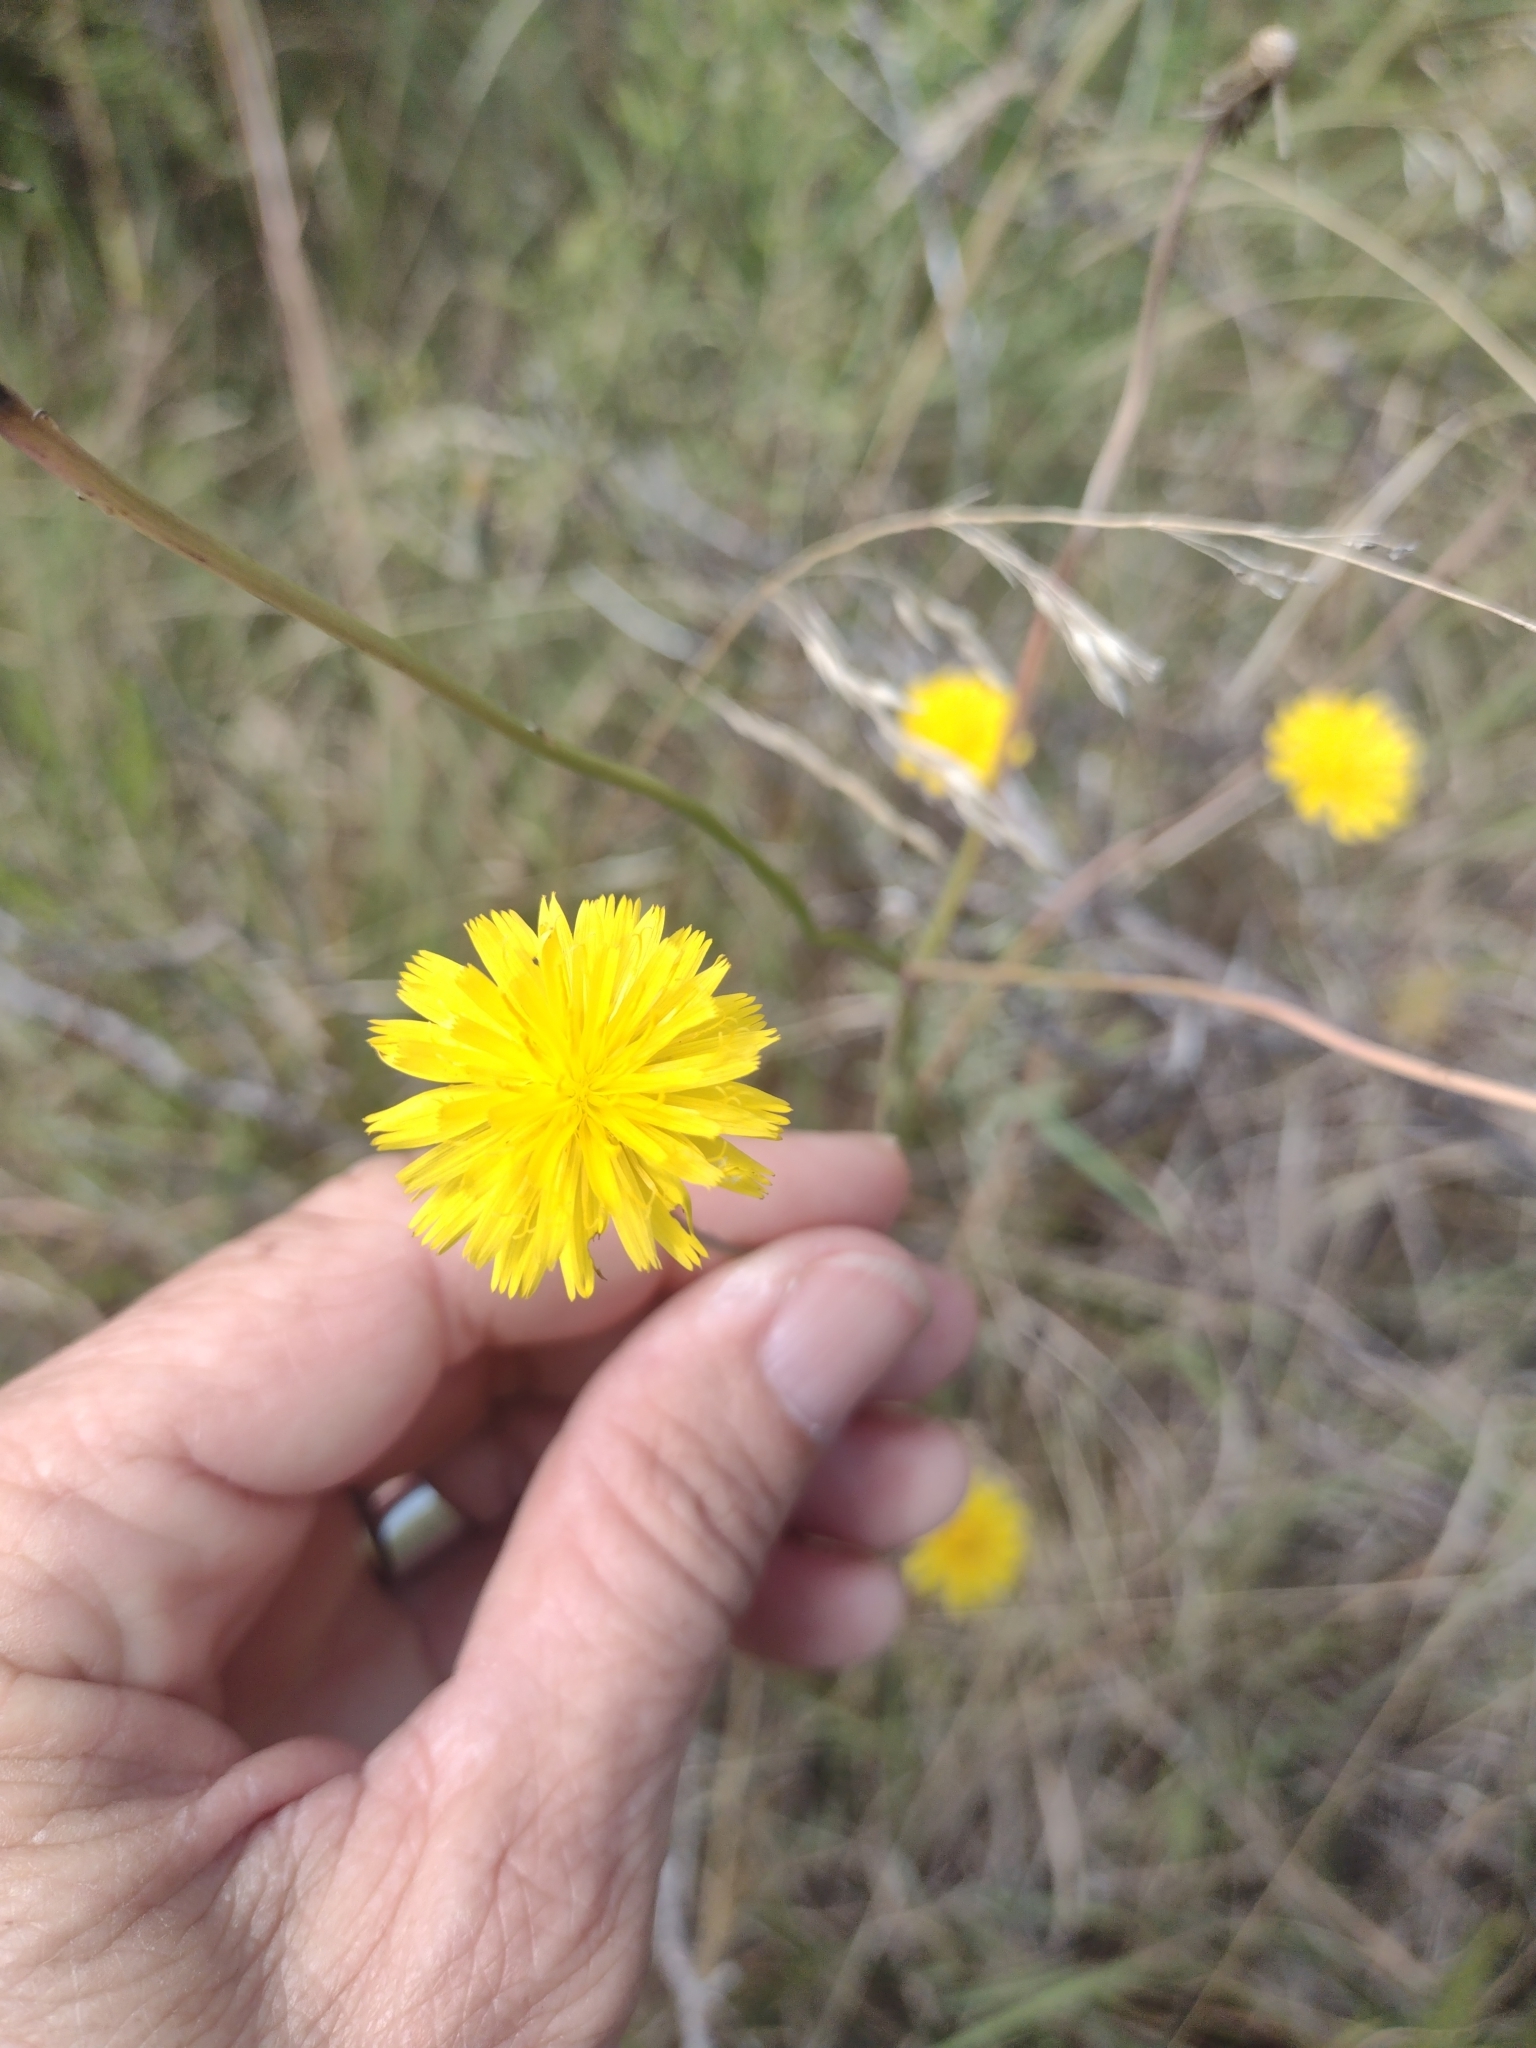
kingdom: Plantae
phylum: Tracheophyta
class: Magnoliopsida
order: Asterales
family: Asteraceae
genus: Hypochaeris
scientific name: Hypochaeris radicata
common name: Flatweed
